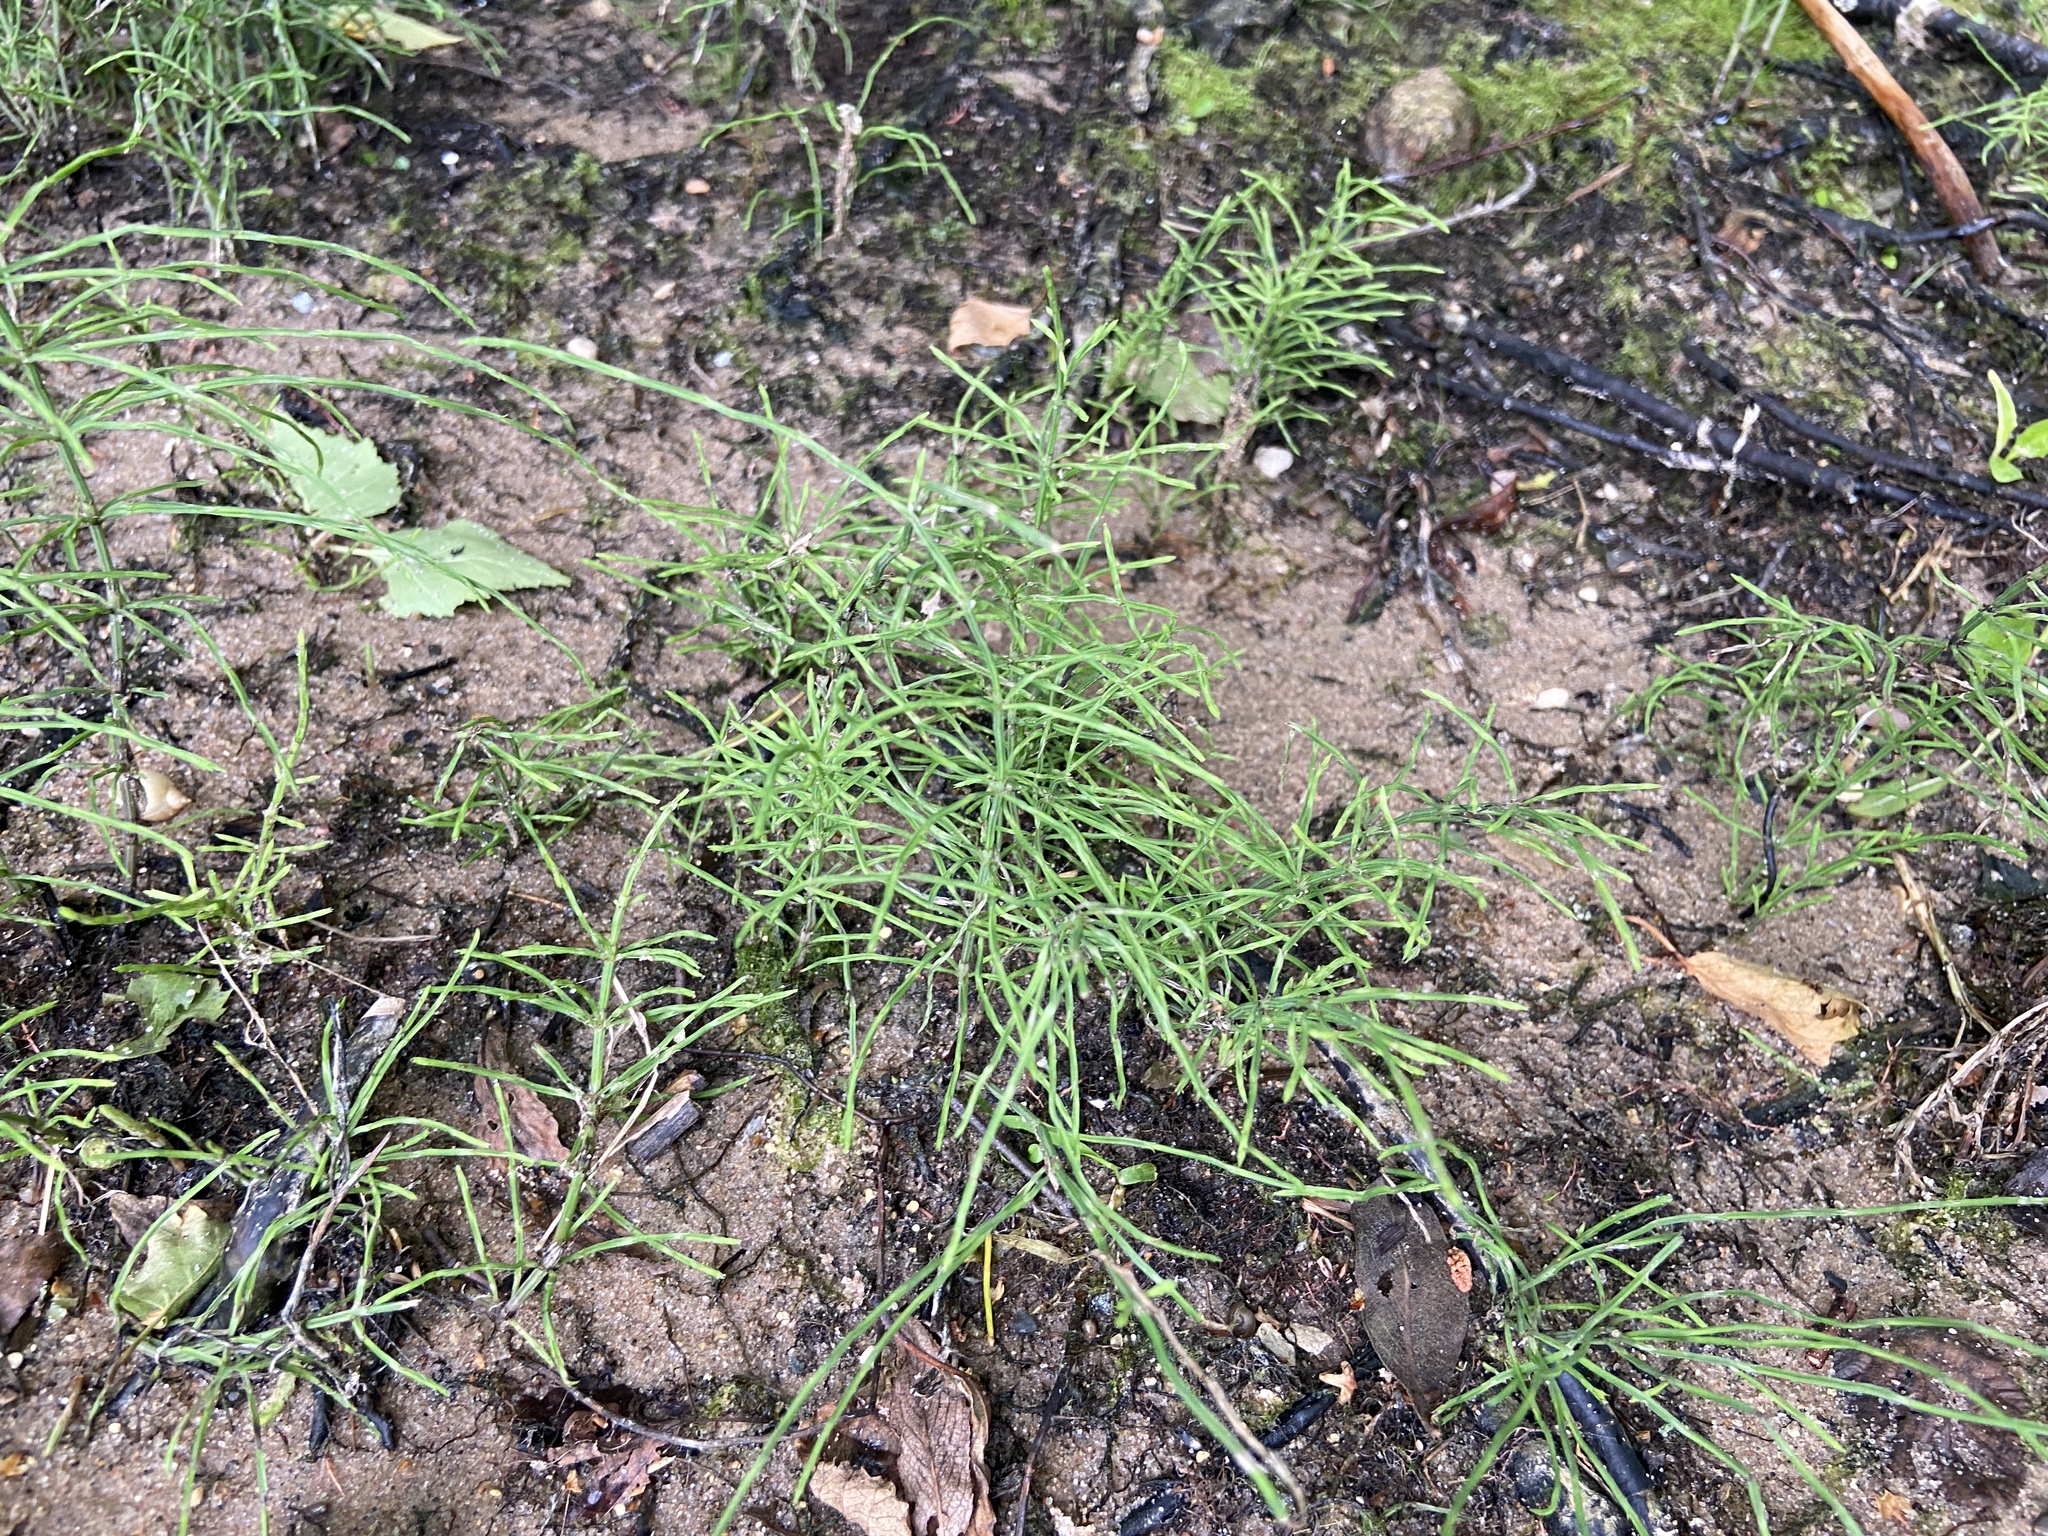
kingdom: Plantae
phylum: Tracheophyta
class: Polypodiopsida
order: Equisetales
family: Equisetaceae
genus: Equisetum
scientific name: Equisetum arvense
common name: Field horsetail
